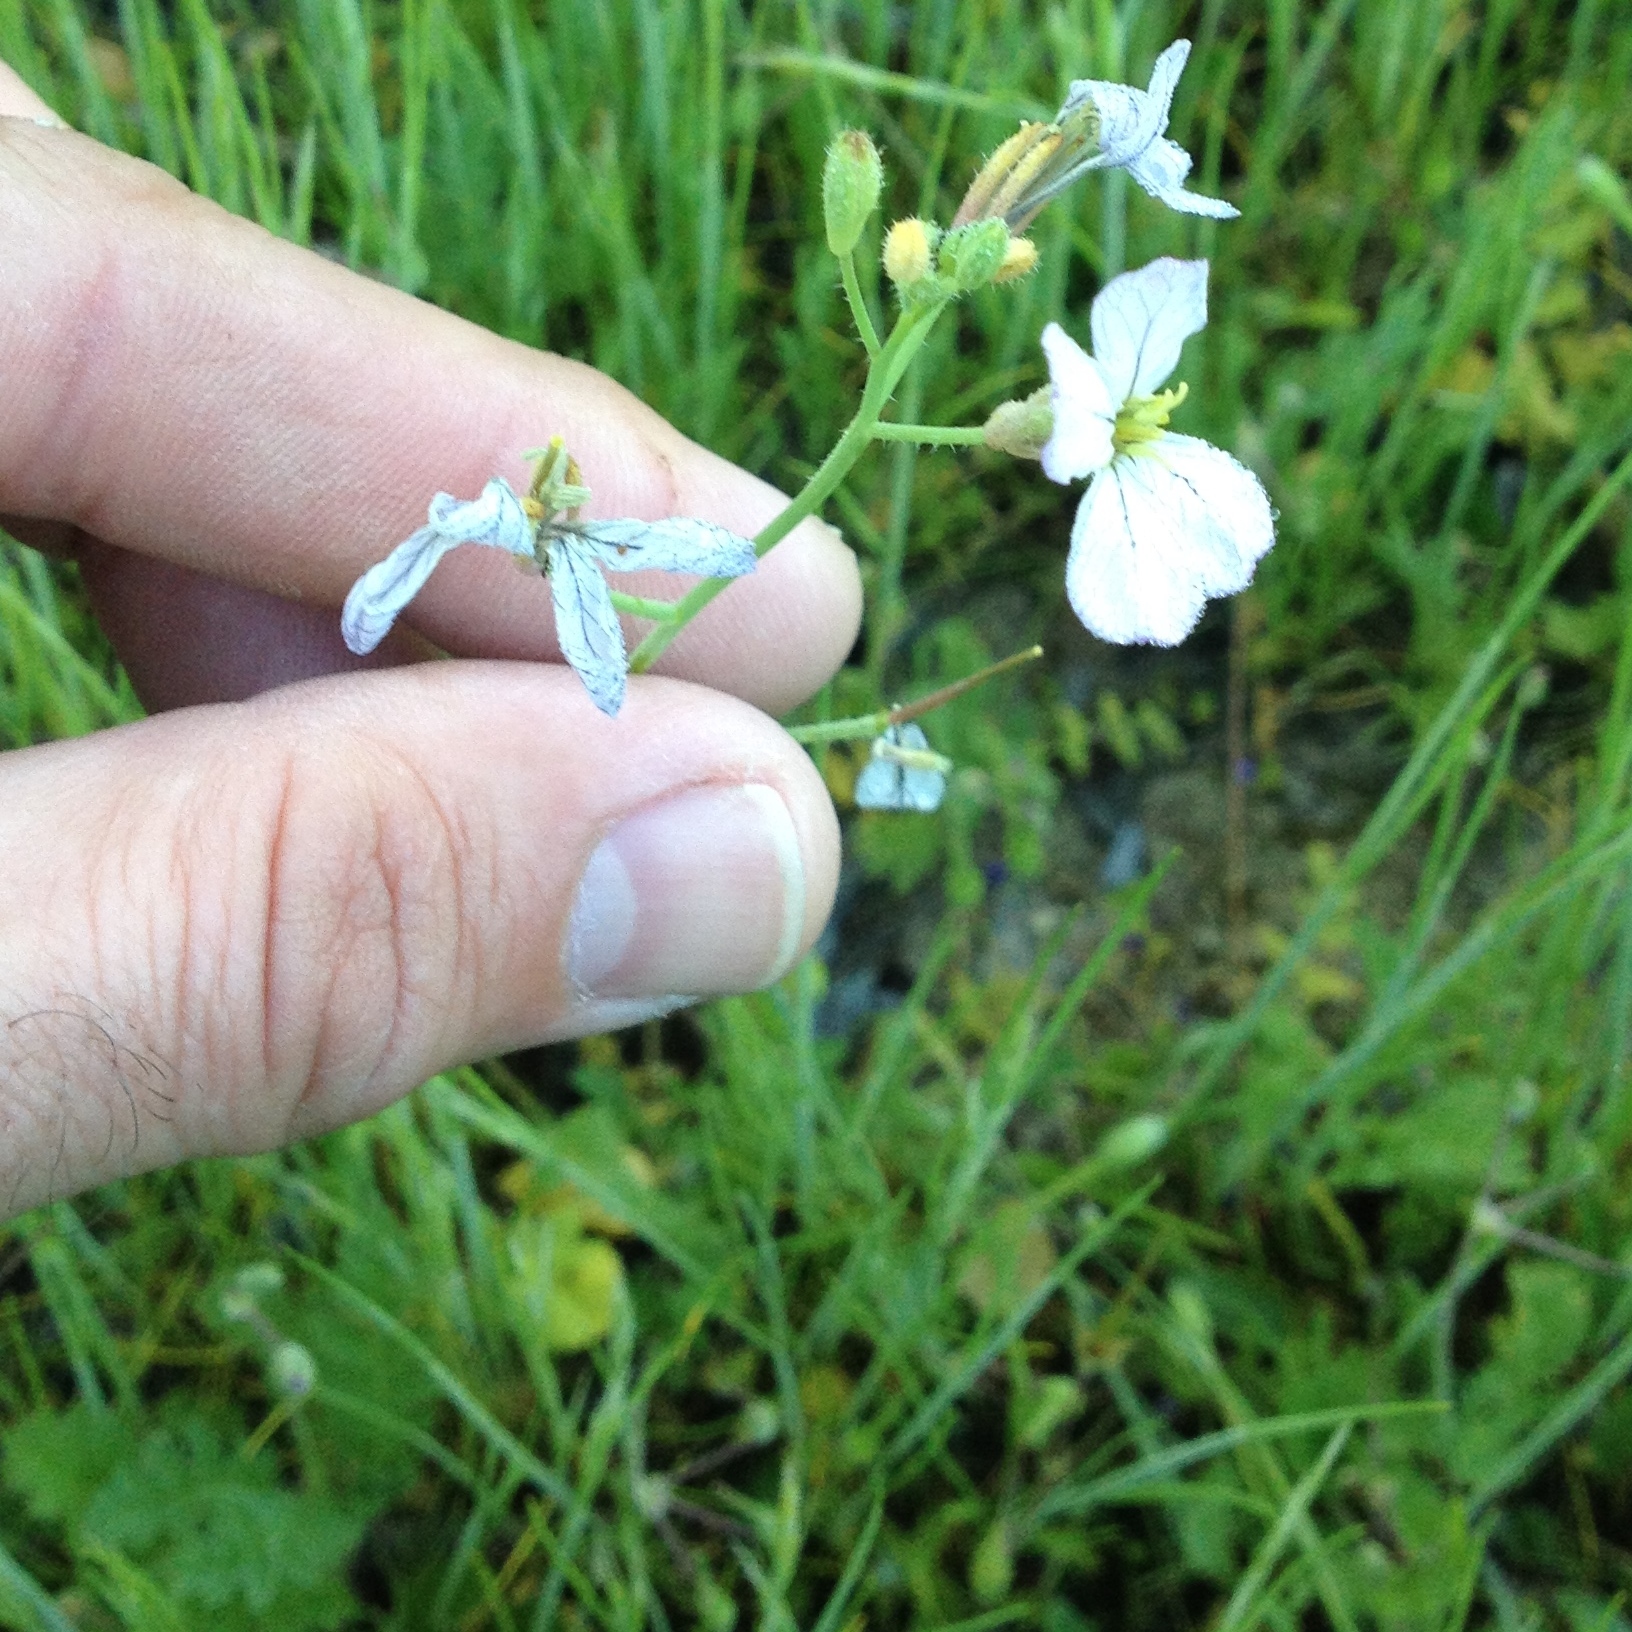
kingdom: Plantae
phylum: Tracheophyta
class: Magnoliopsida
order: Brassicales
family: Brassicaceae
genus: Raphanus
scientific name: Raphanus
